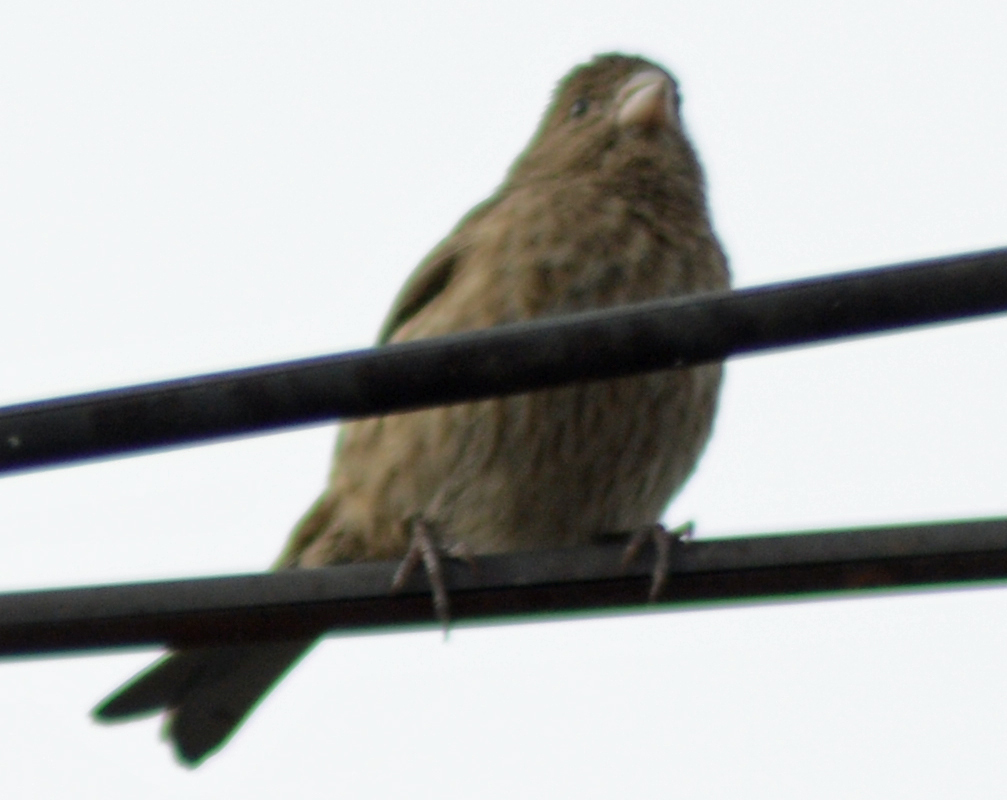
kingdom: Animalia
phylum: Chordata
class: Aves
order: Passeriformes
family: Fringillidae
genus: Haemorhous
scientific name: Haemorhous mexicanus
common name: House finch
